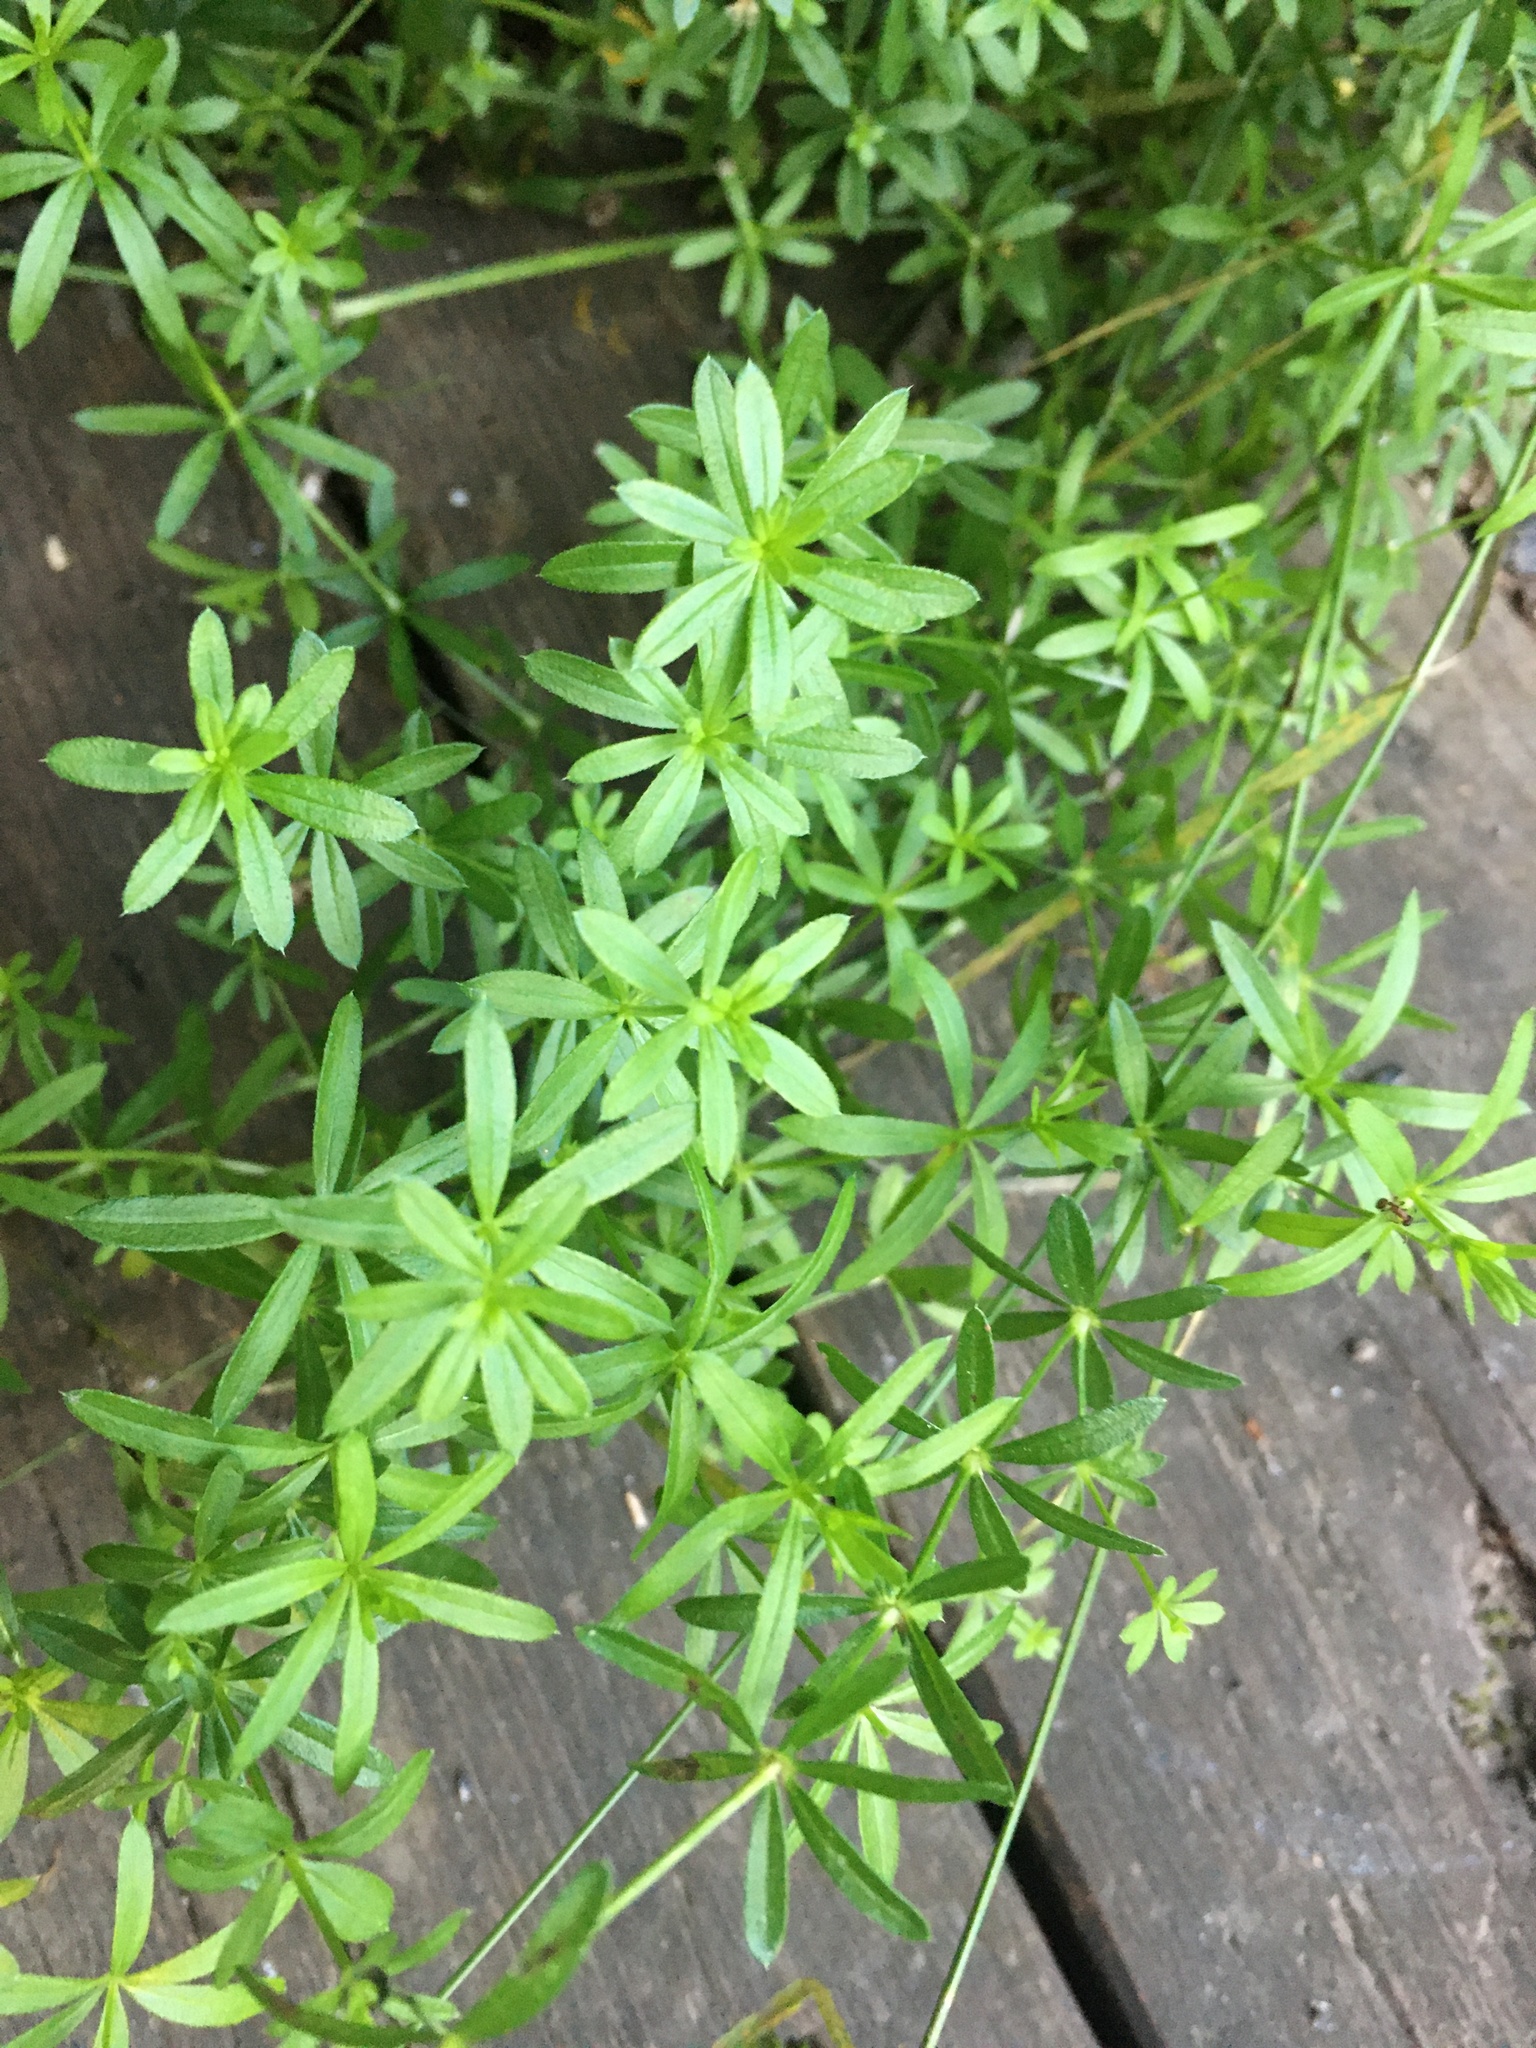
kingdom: Plantae
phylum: Tracheophyta
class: Magnoliopsida
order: Gentianales
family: Rubiaceae
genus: Galium
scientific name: Galium mollugo
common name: Hedge bedstraw
